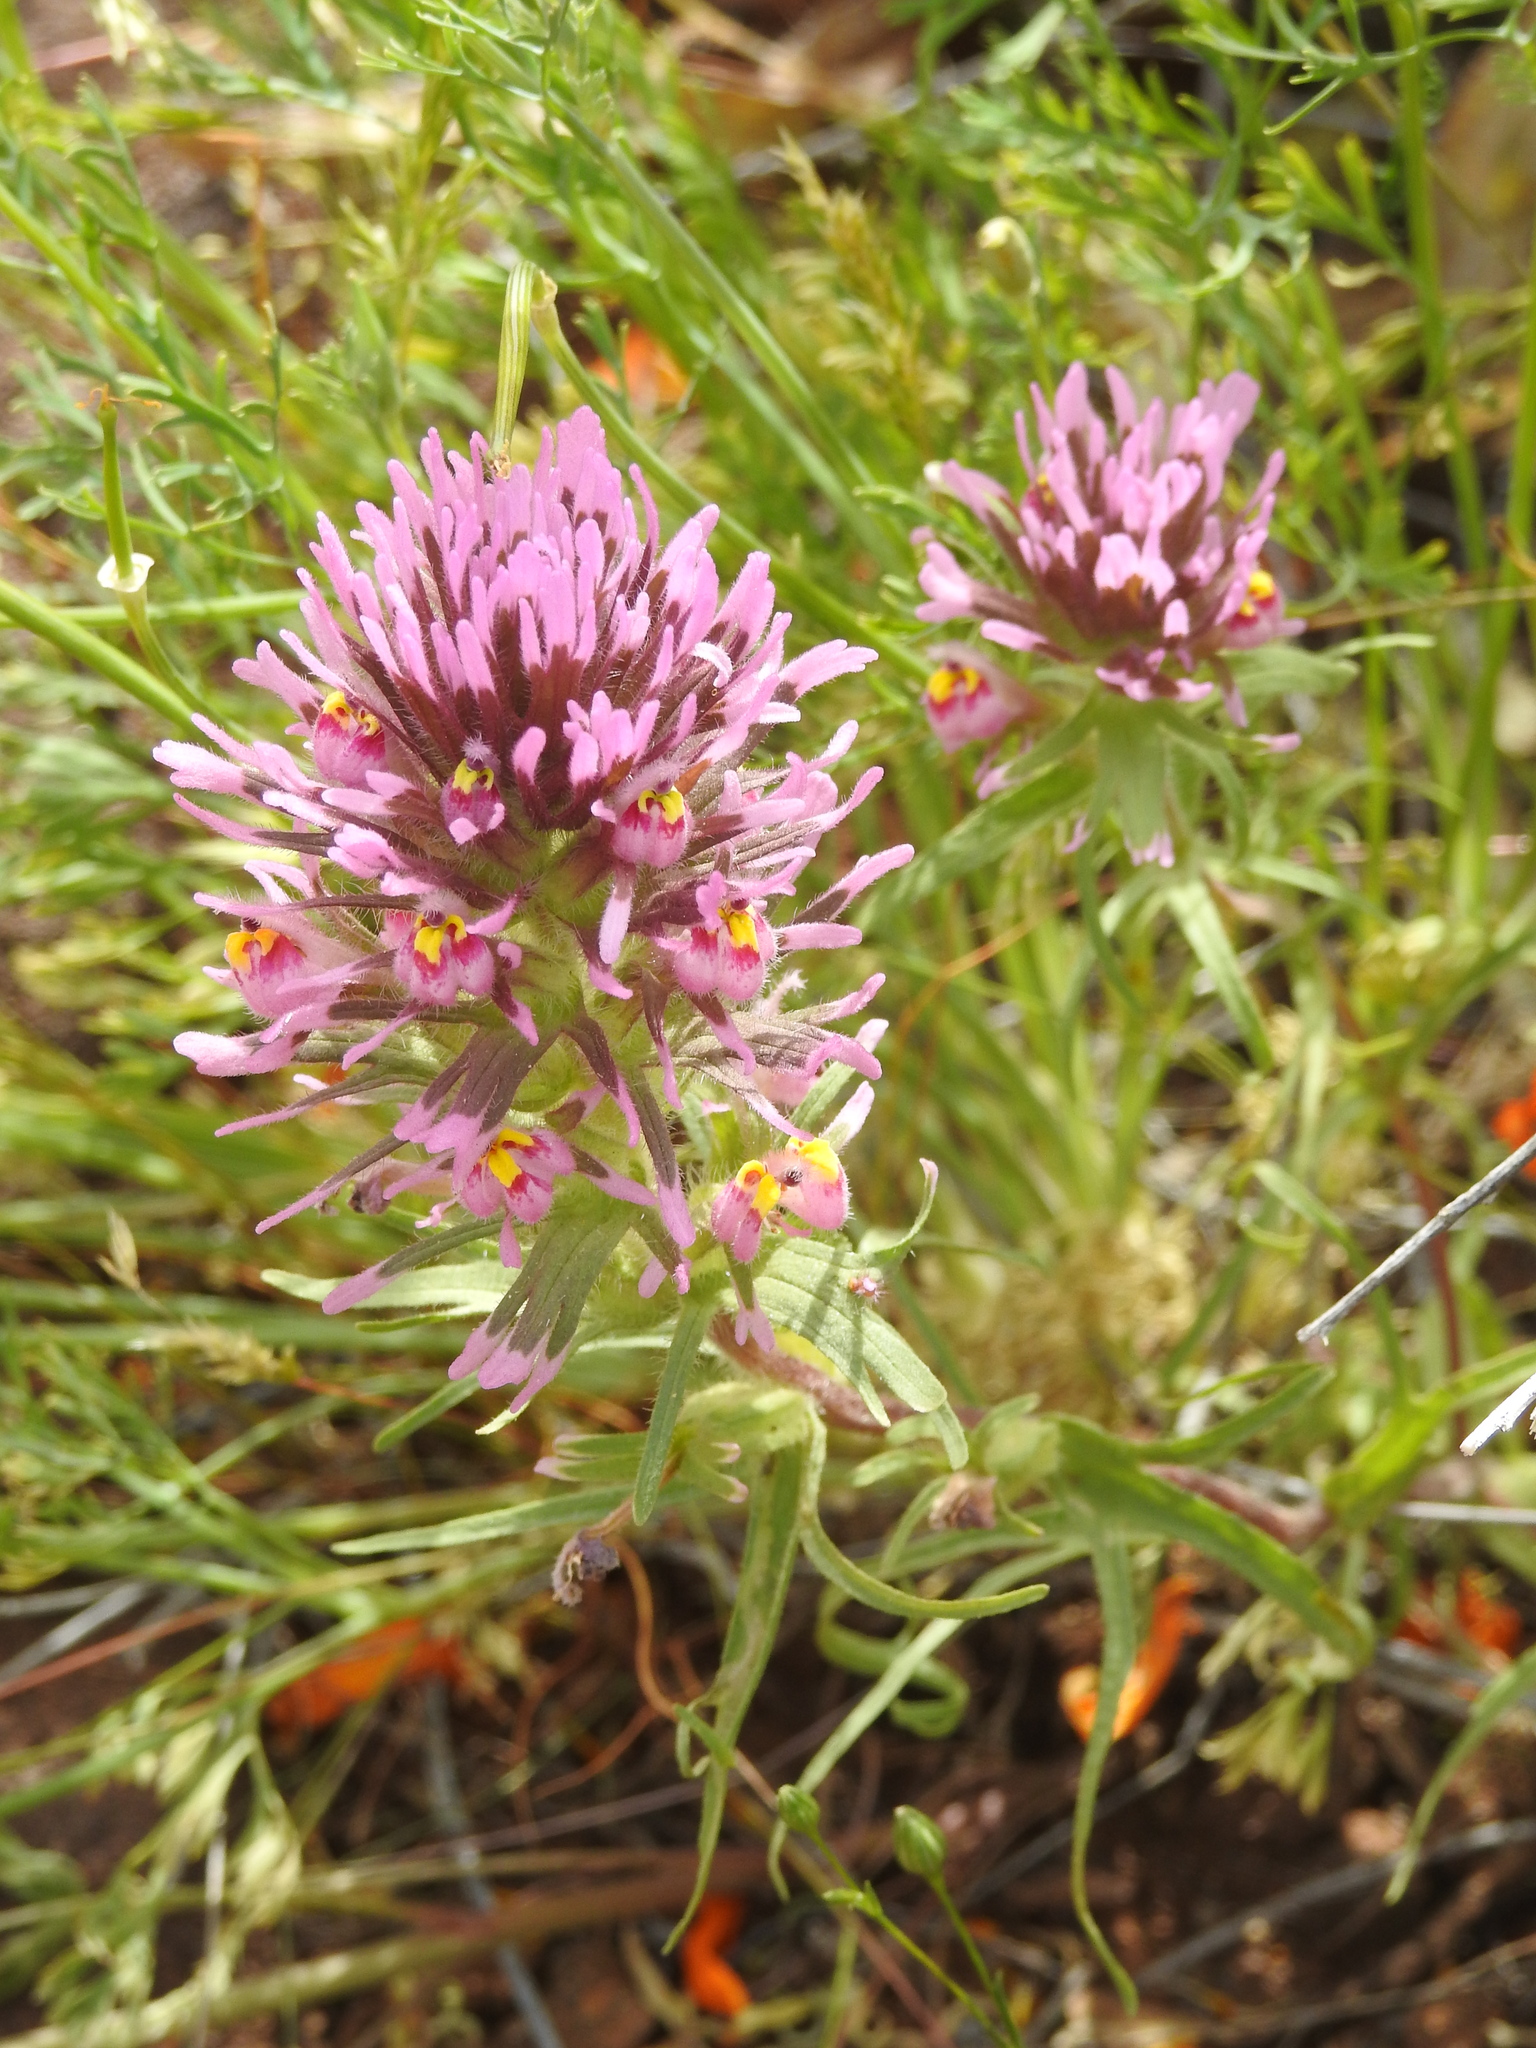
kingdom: Plantae
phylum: Tracheophyta
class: Magnoliopsida
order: Lamiales
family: Orobanchaceae
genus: Castilleja
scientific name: Castilleja exserta
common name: Purple owl-clover
